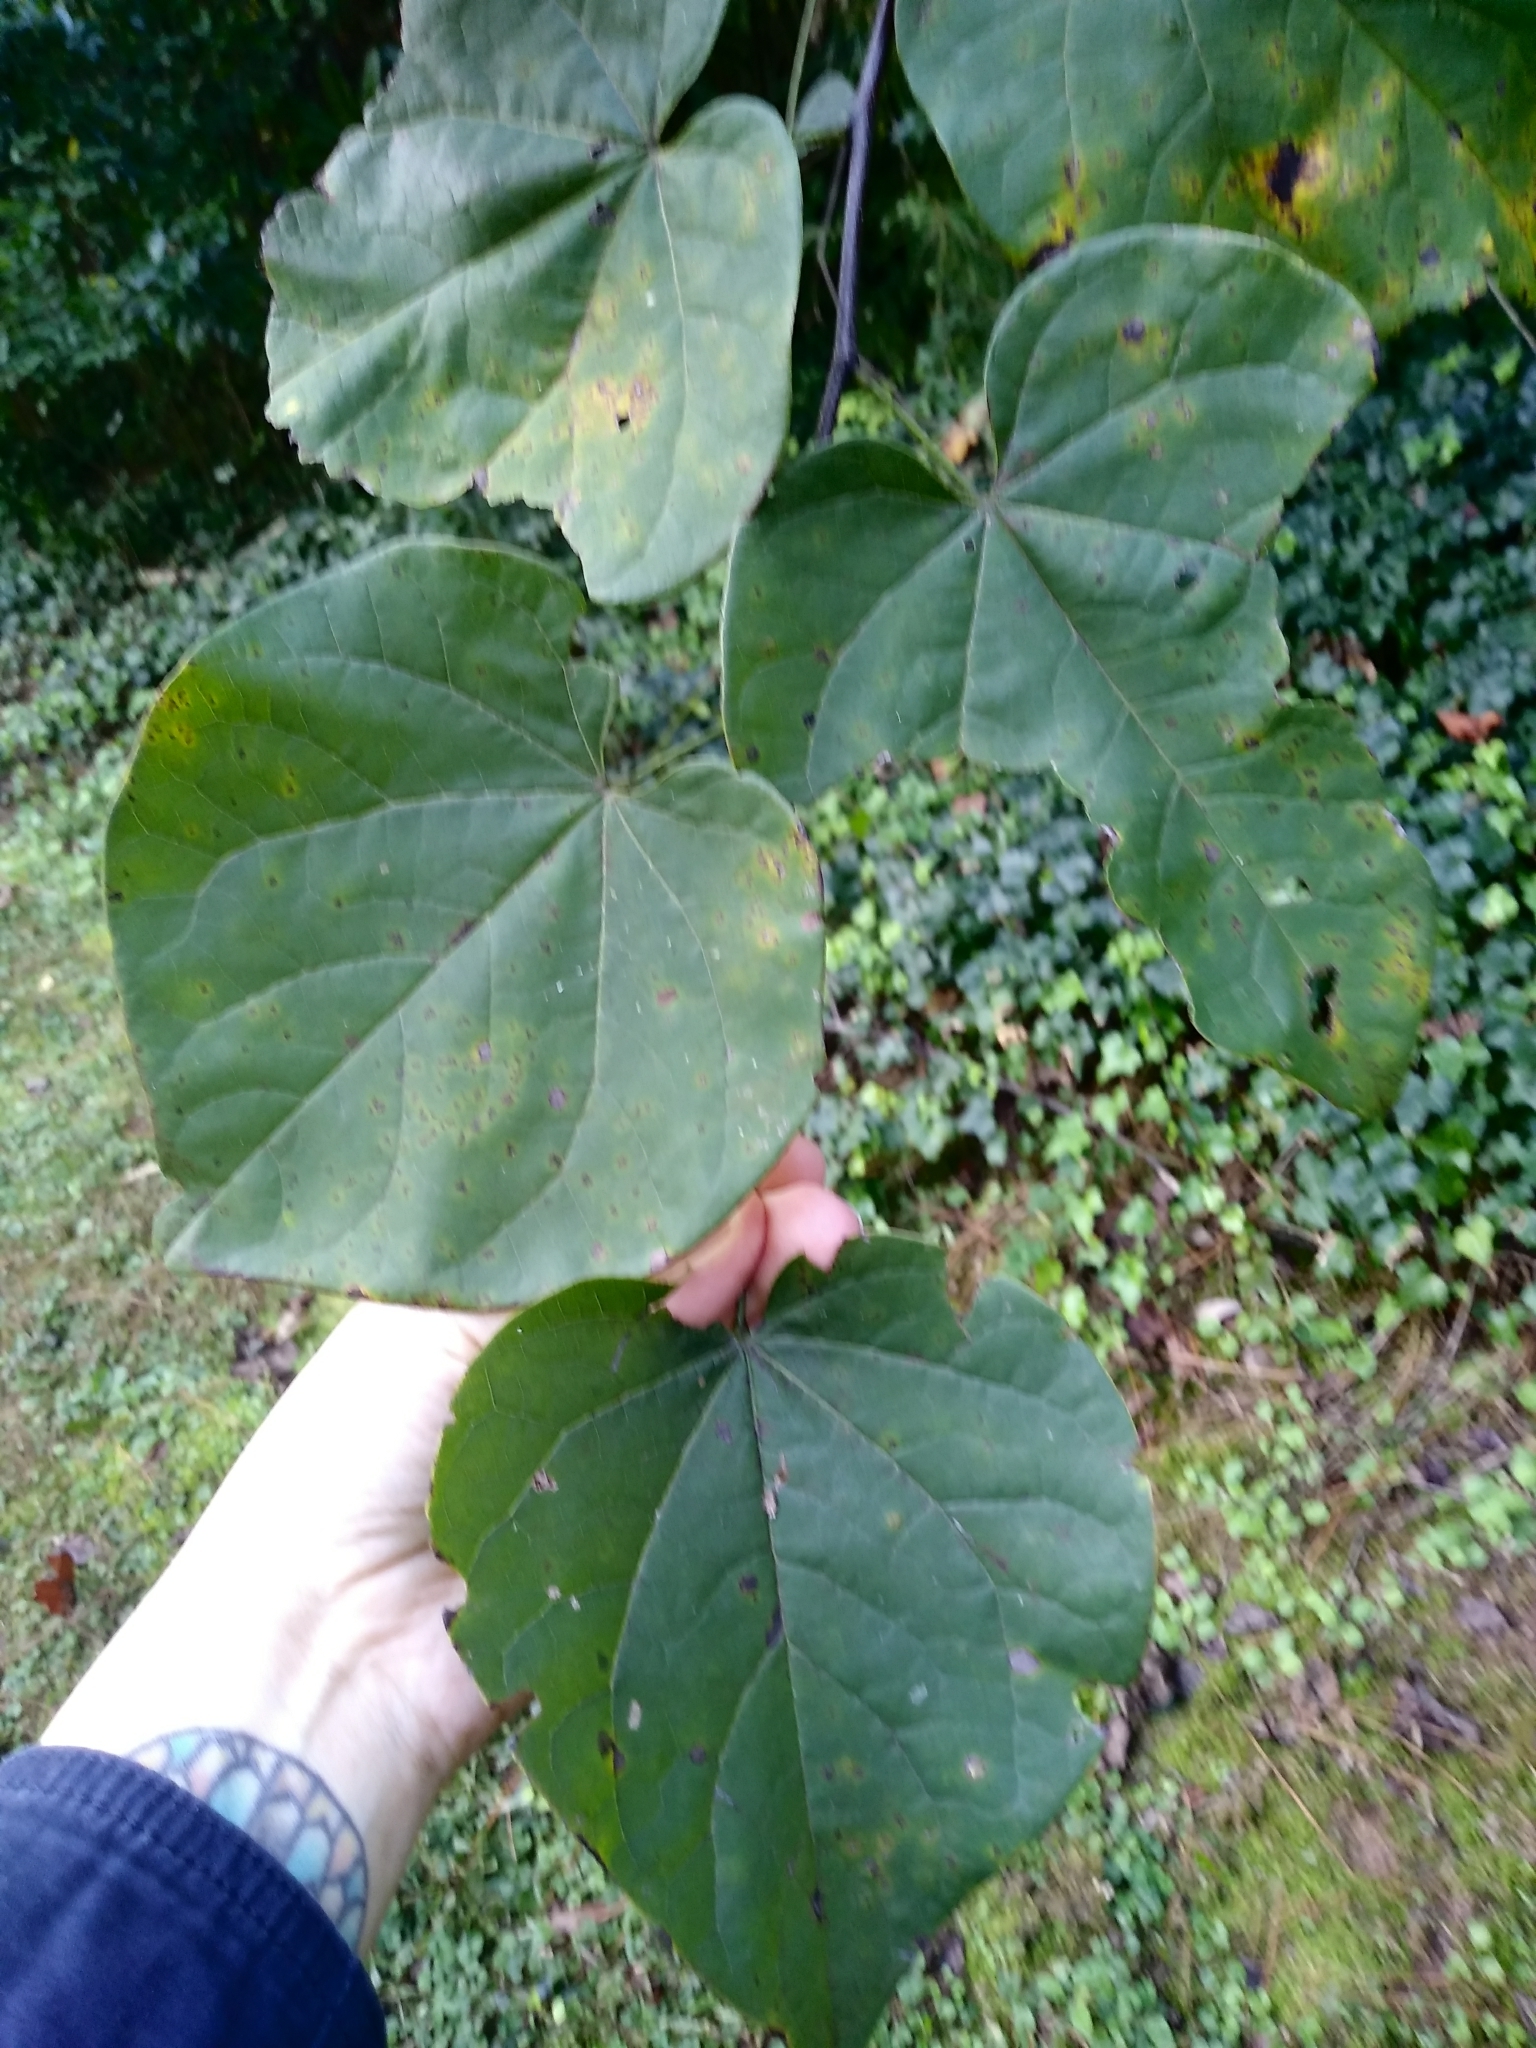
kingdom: Plantae
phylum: Tracheophyta
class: Magnoliopsida
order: Fabales
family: Fabaceae
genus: Cercis
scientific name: Cercis canadensis
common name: Eastern redbud
